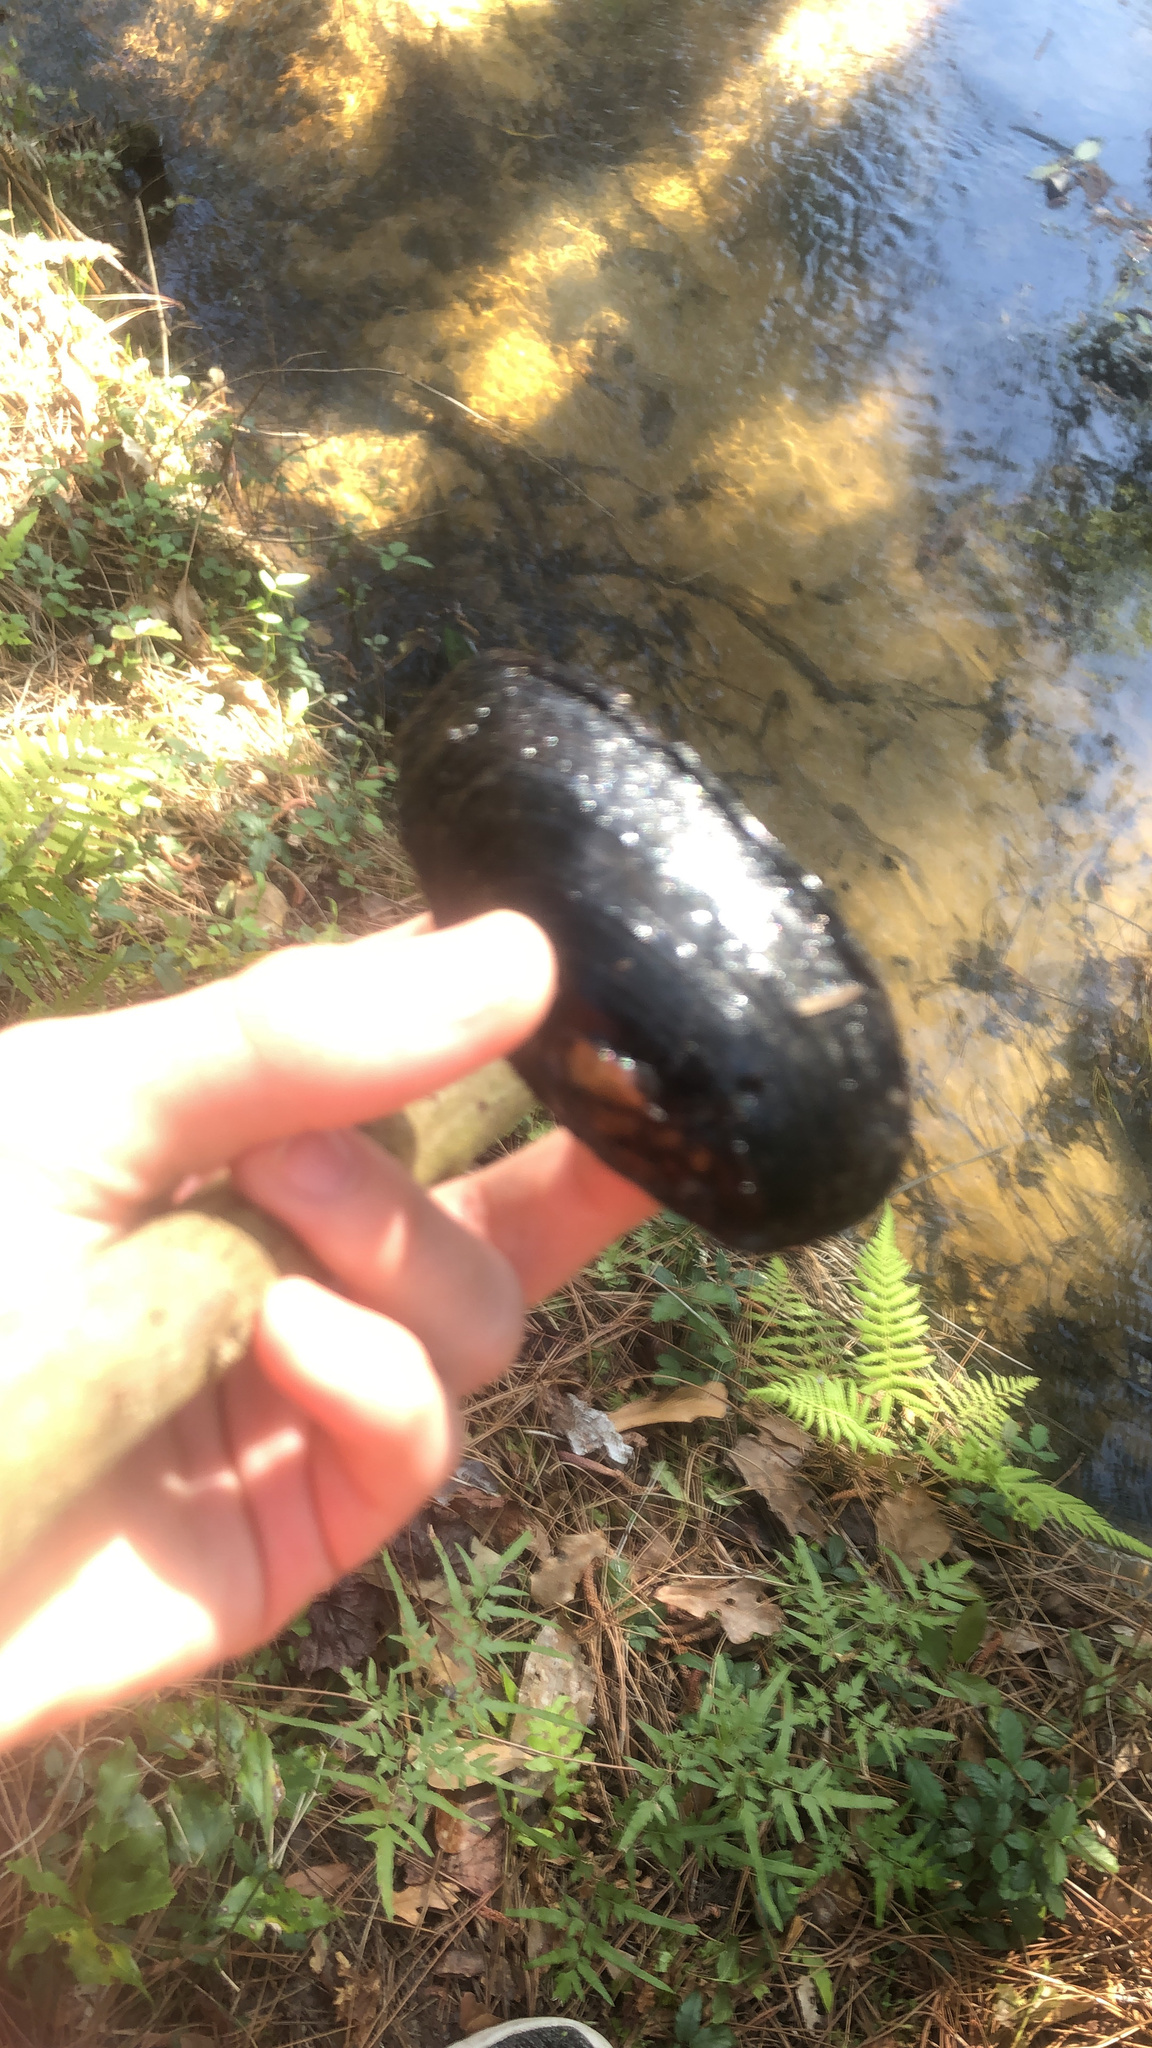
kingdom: Animalia
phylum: Mollusca
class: Bivalvia
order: Unionida
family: Unionidae
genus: Elliptio
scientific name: Elliptio jayensis
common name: Florida spike
